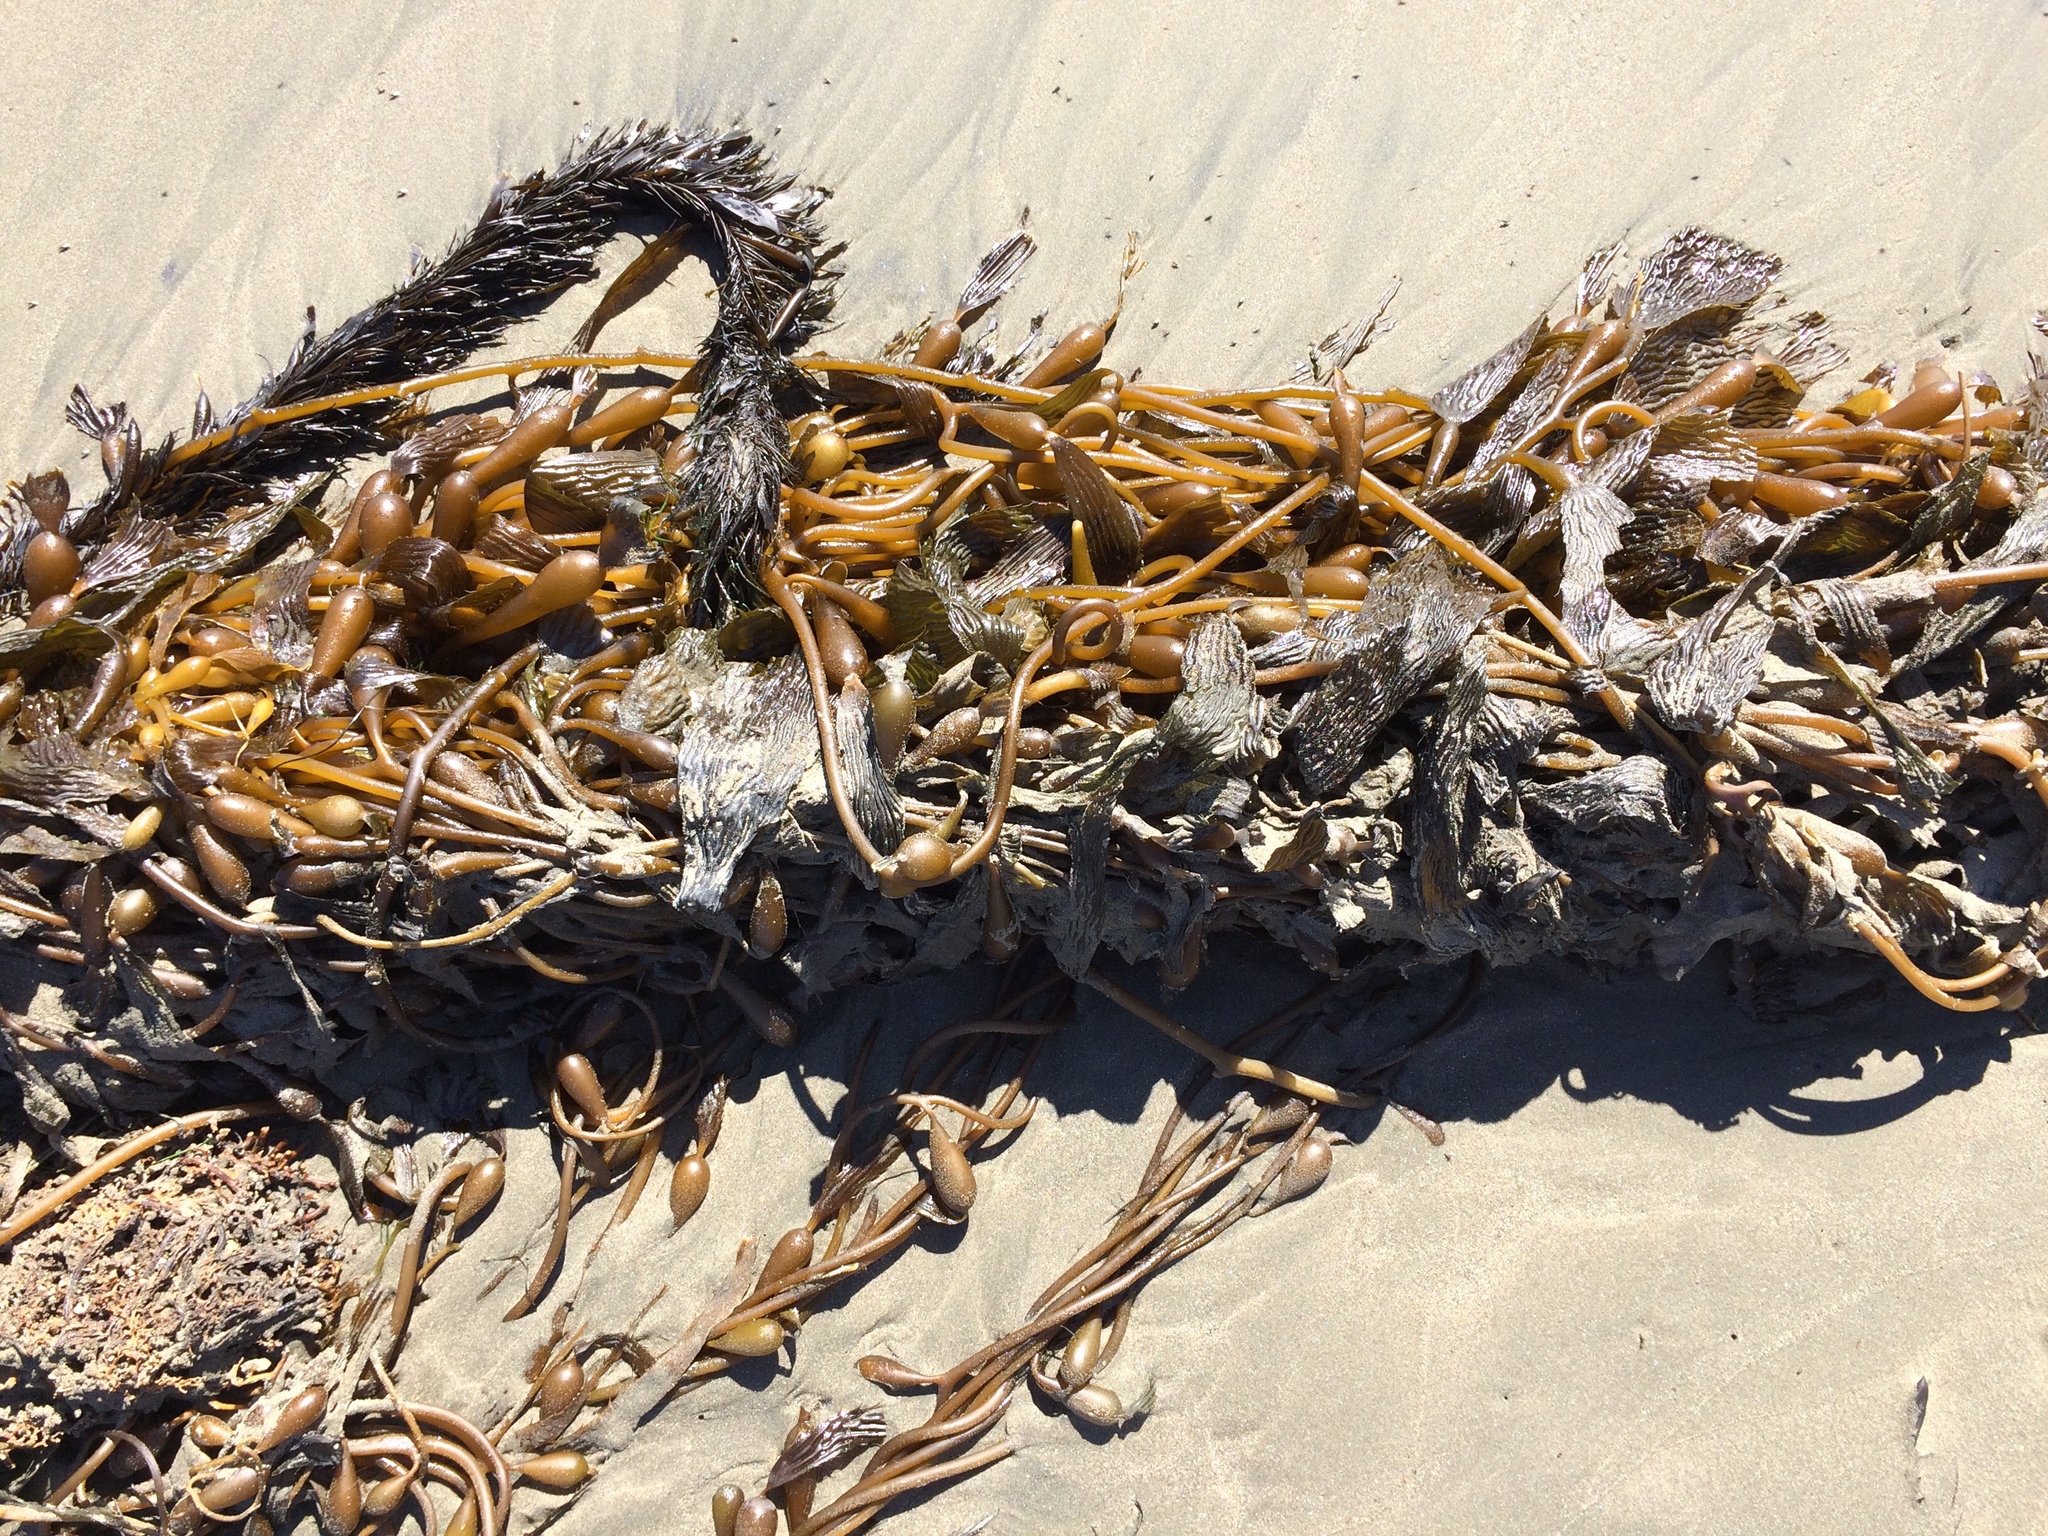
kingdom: Chromista
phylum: Ochrophyta
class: Phaeophyceae
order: Laminariales
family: Lessoniaceae
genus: Egregia
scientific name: Egregia menziesii
